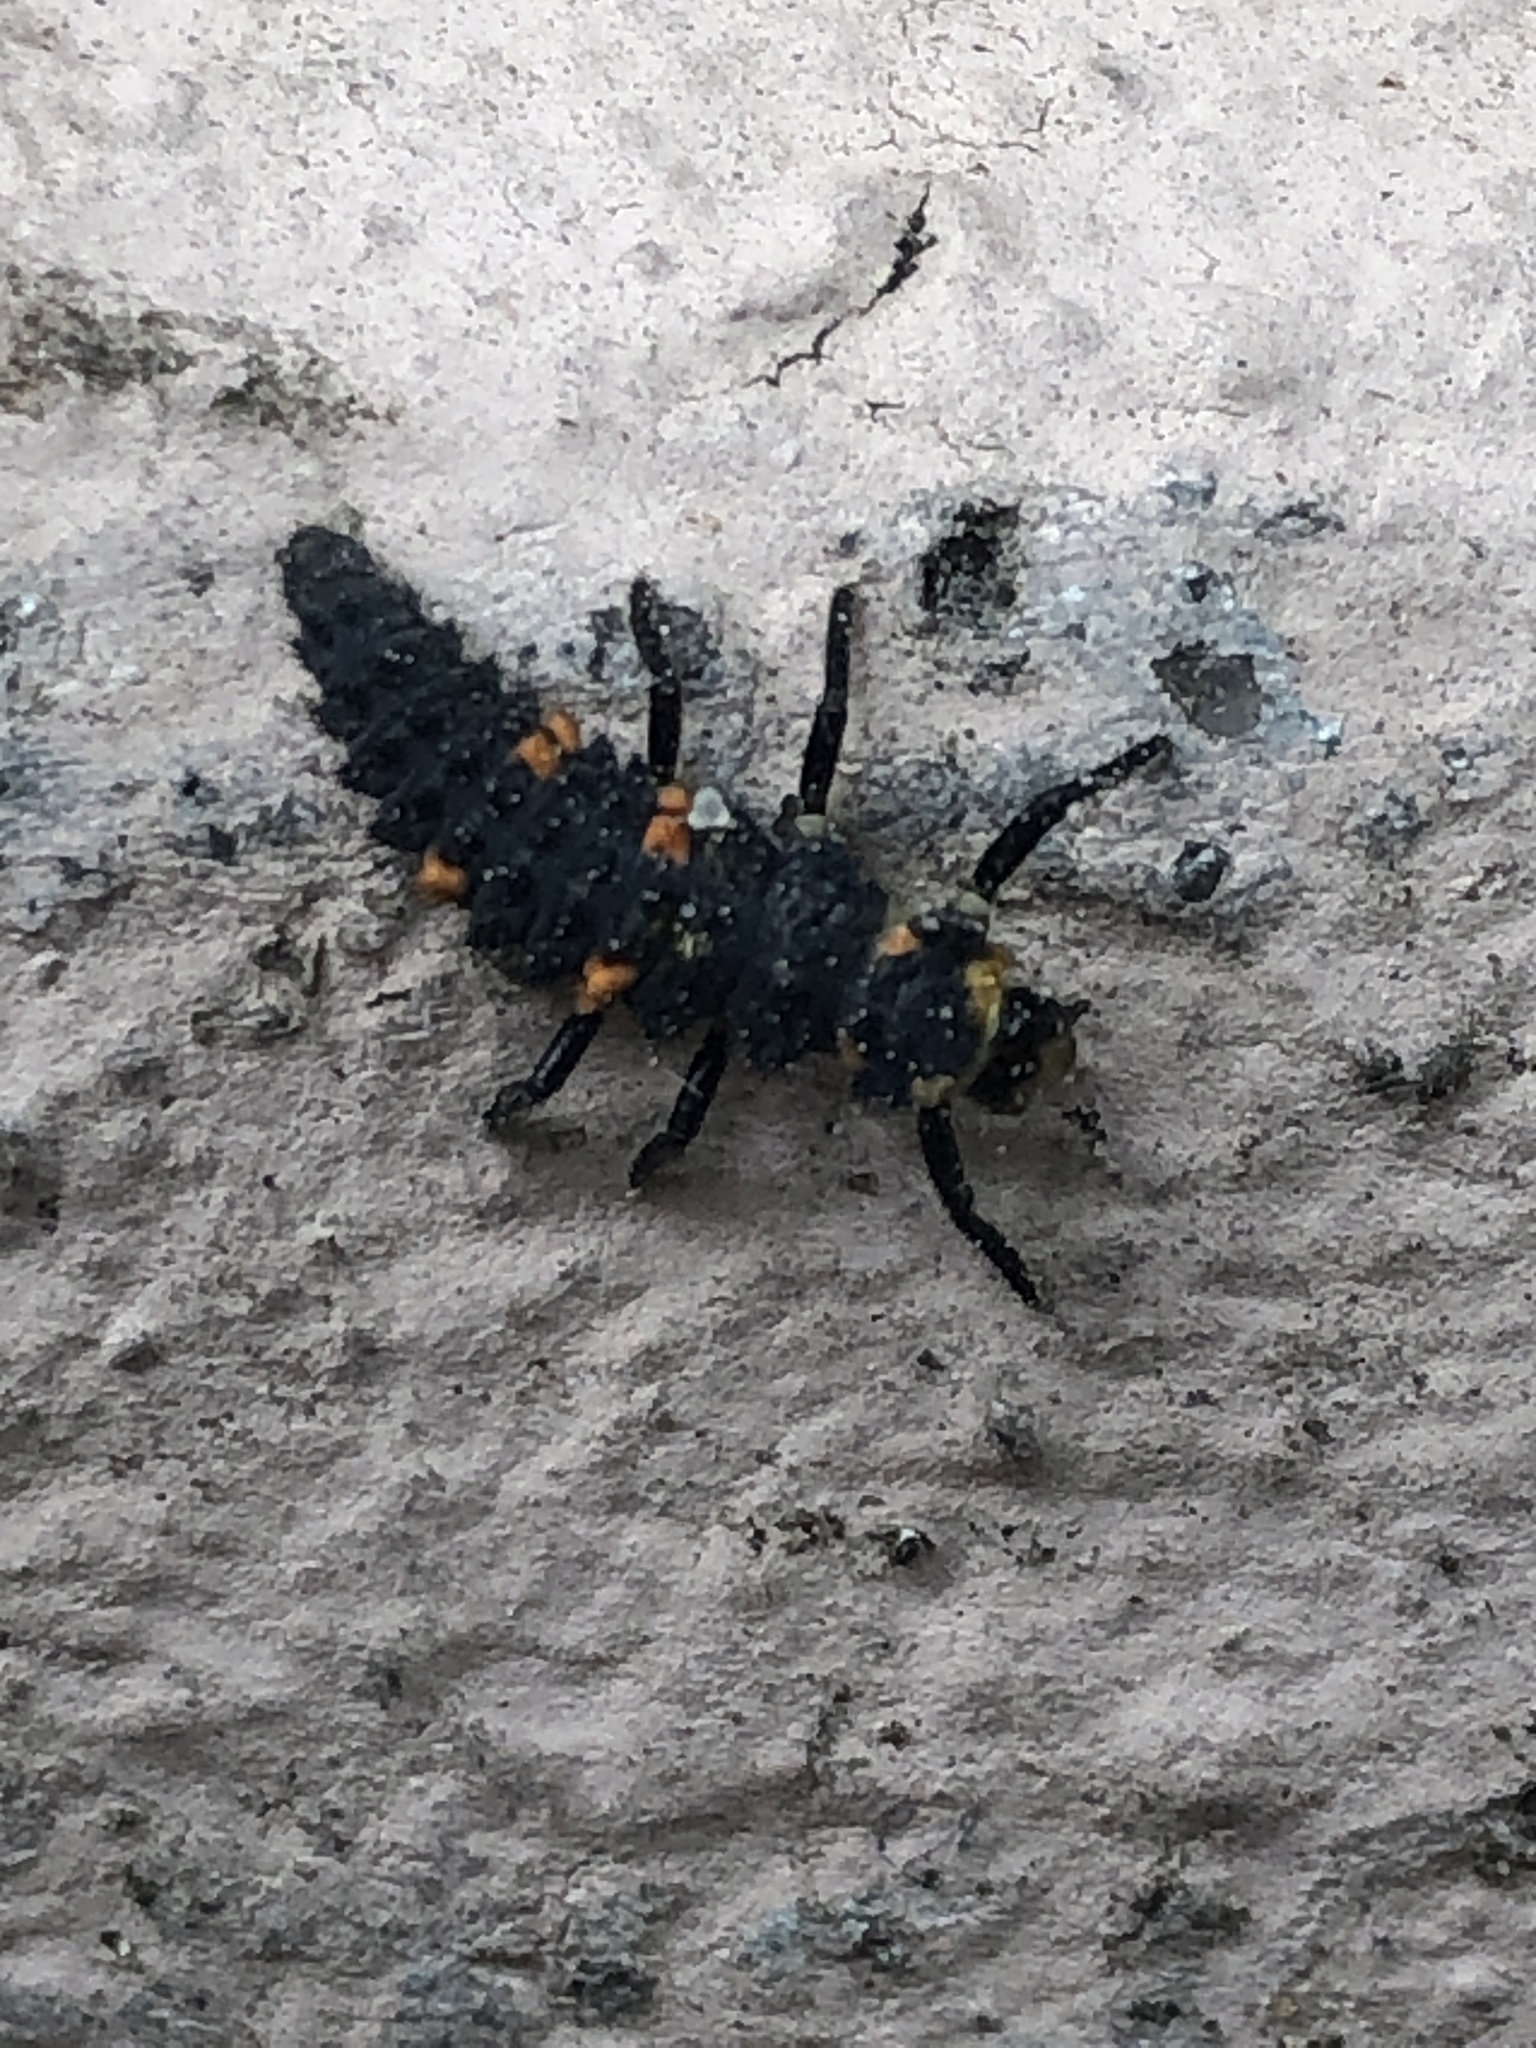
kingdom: Animalia
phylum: Arthropoda
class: Insecta
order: Coleoptera
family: Coccinellidae
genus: Coccinella
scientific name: Coccinella septempunctata
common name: Sevenspotted lady beetle
